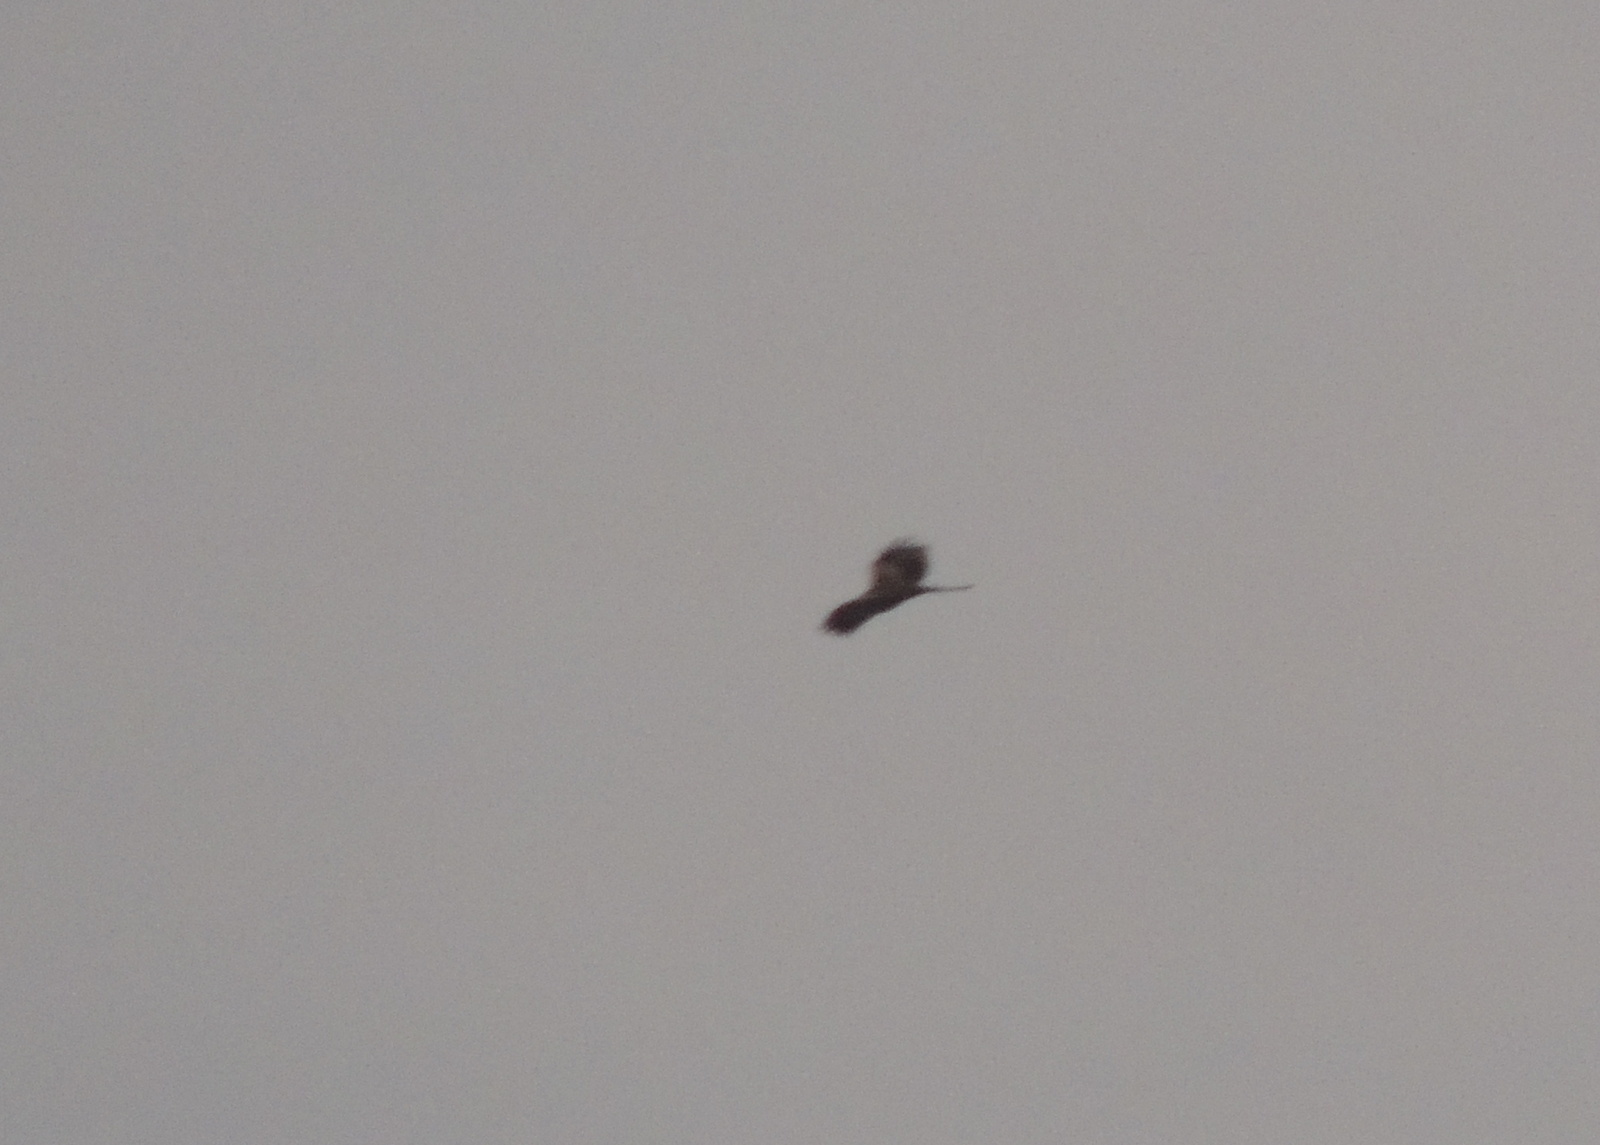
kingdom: Animalia
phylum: Chordata
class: Aves
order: Accipitriformes
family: Accipitridae
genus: Milvus
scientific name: Milvus migrans
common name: Black kite
